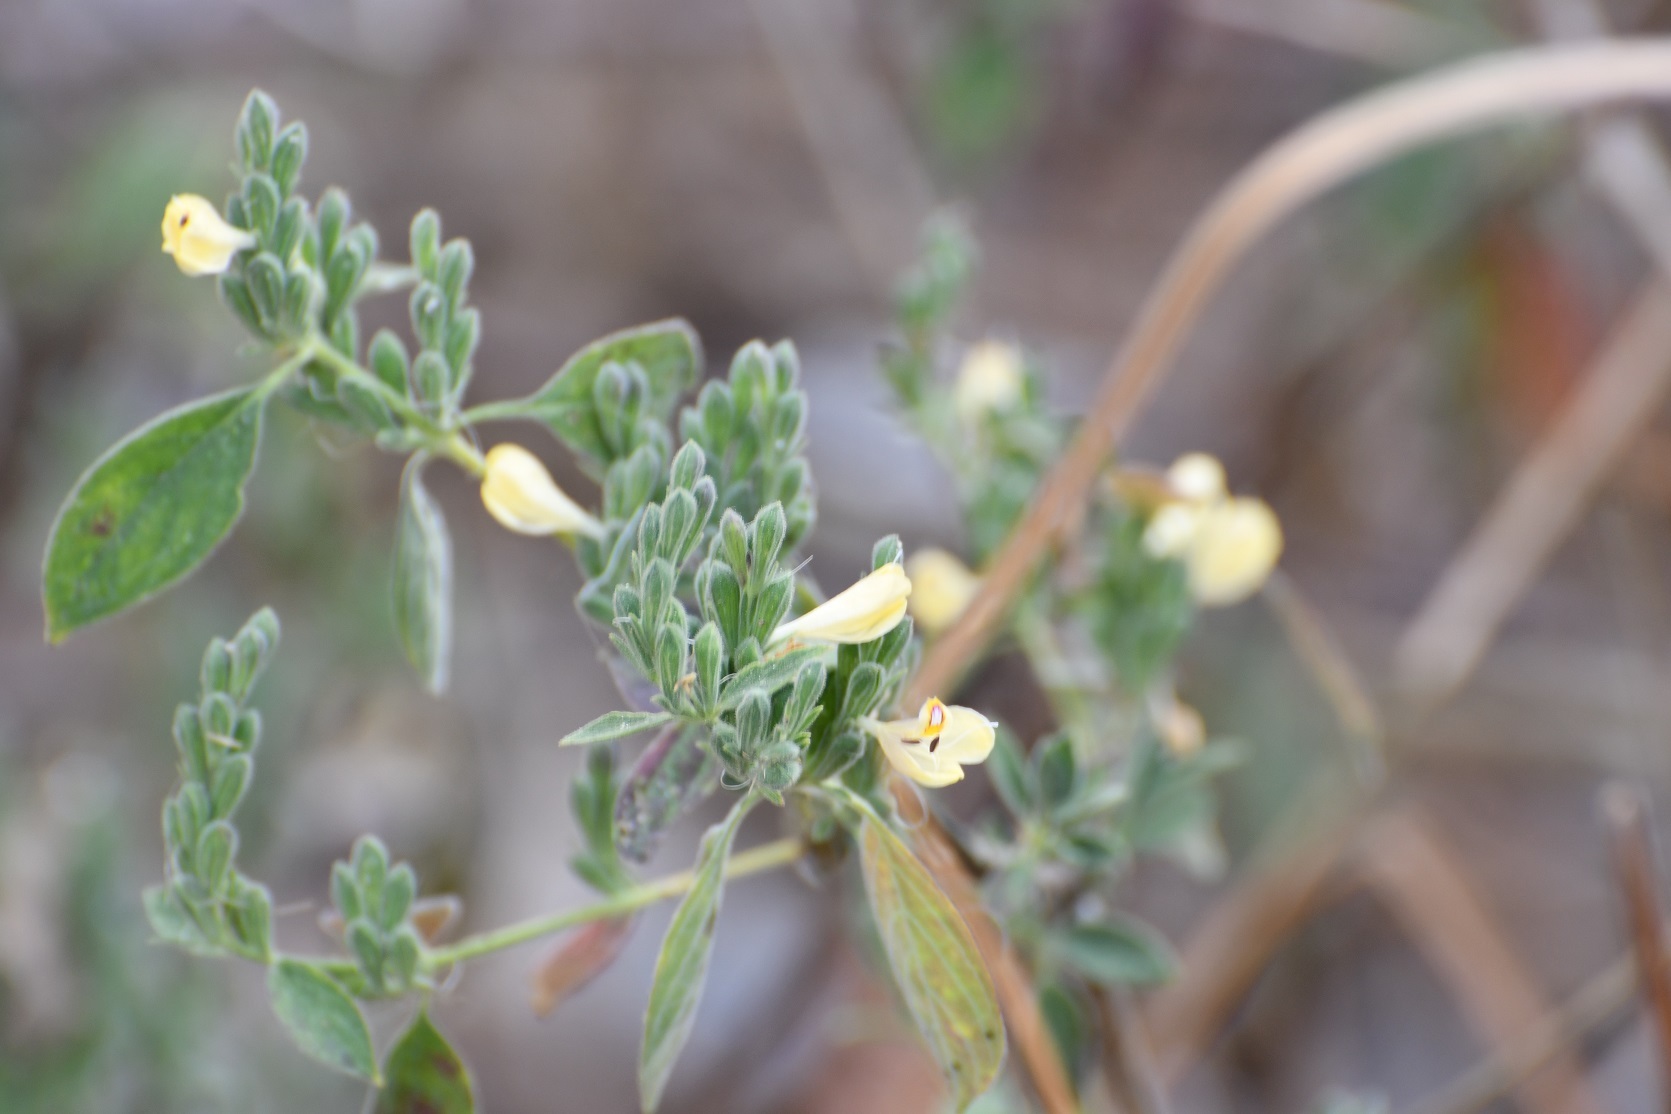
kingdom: Plantae
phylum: Tracheophyta
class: Magnoliopsida
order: Lamiales
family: Acanthaceae
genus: Henrya
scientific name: Henrya insularis
